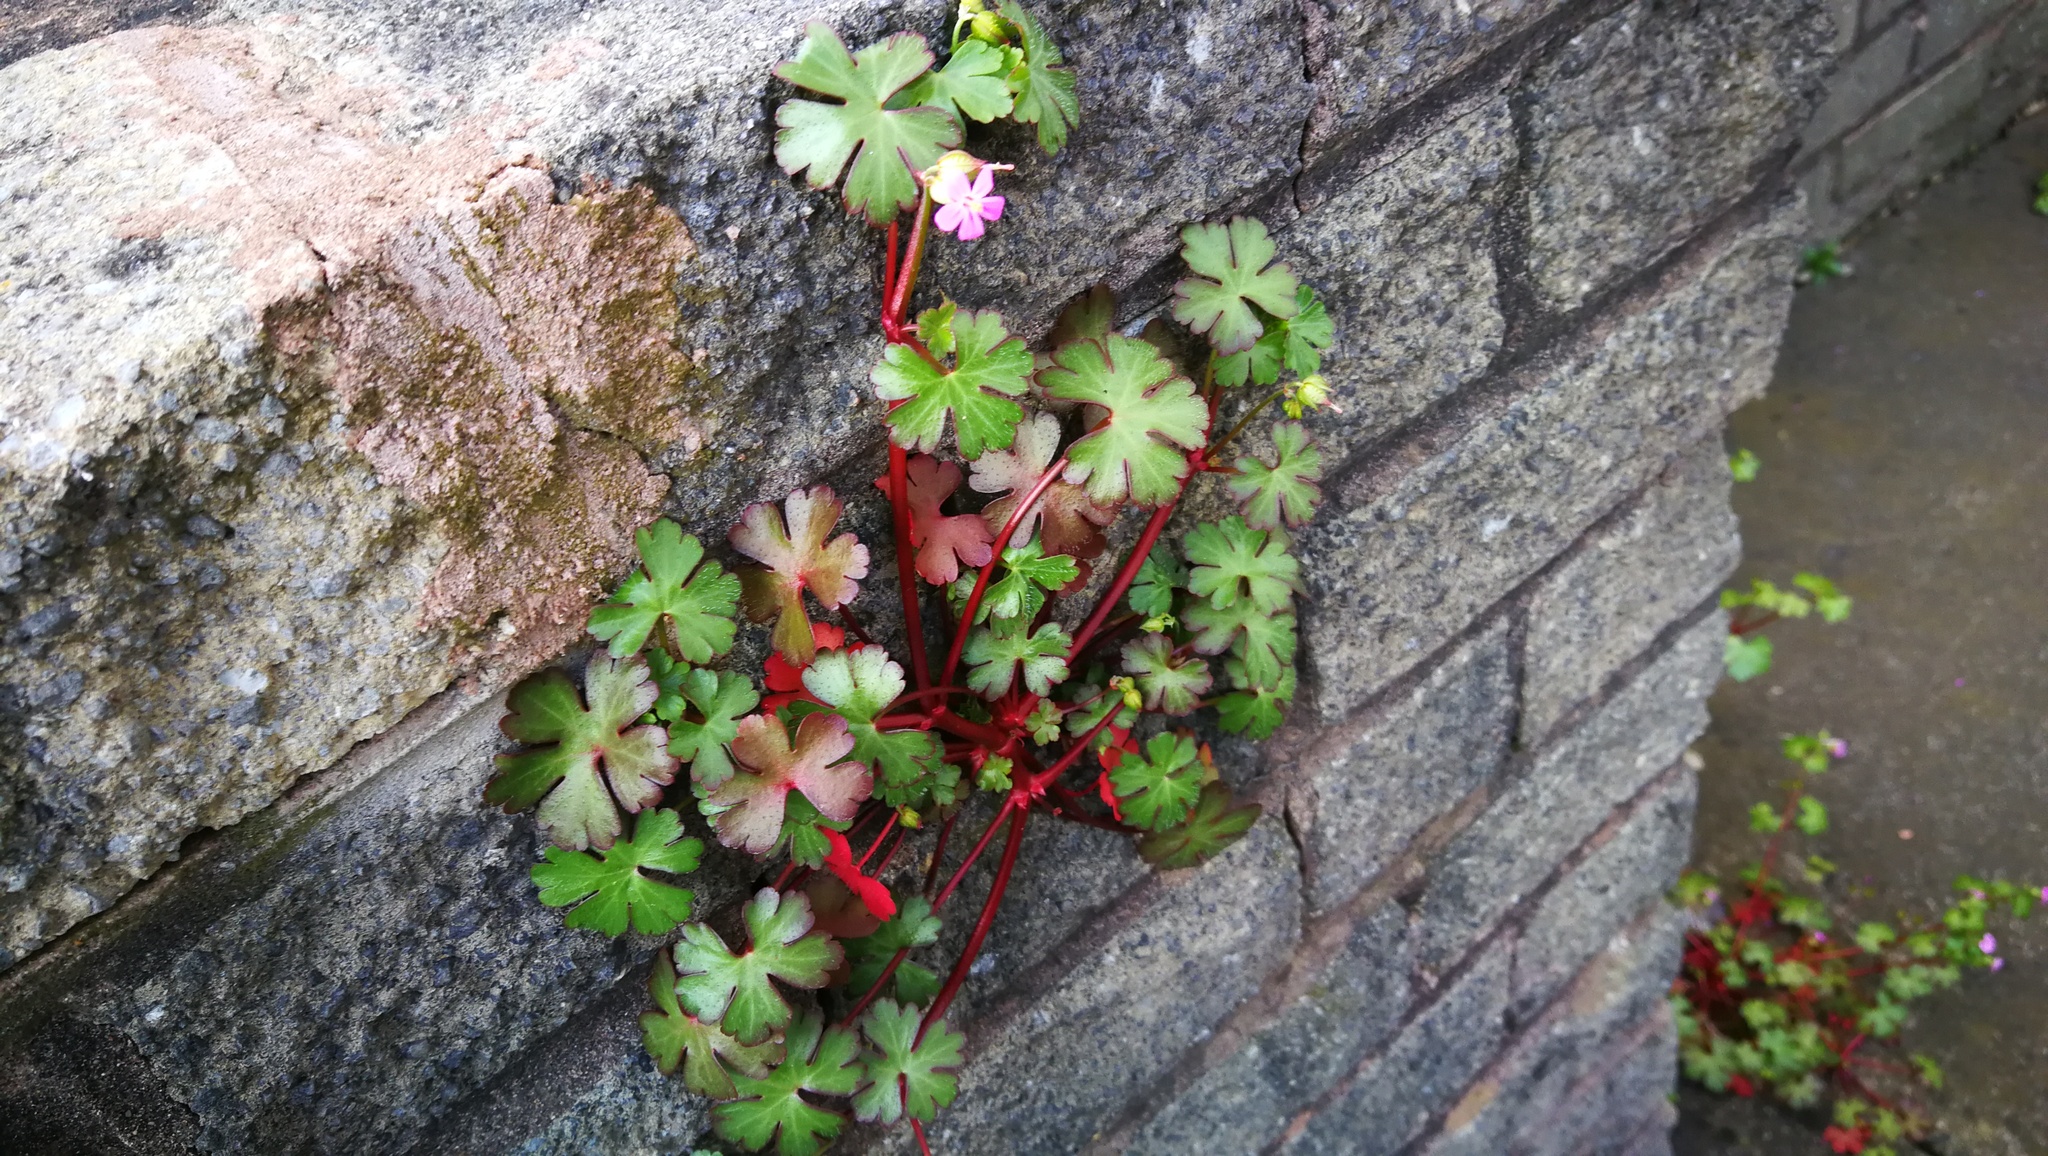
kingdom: Plantae
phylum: Tracheophyta
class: Magnoliopsida
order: Geraniales
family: Geraniaceae
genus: Geranium
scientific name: Geranium lucidum
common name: Shining crane's-bill
